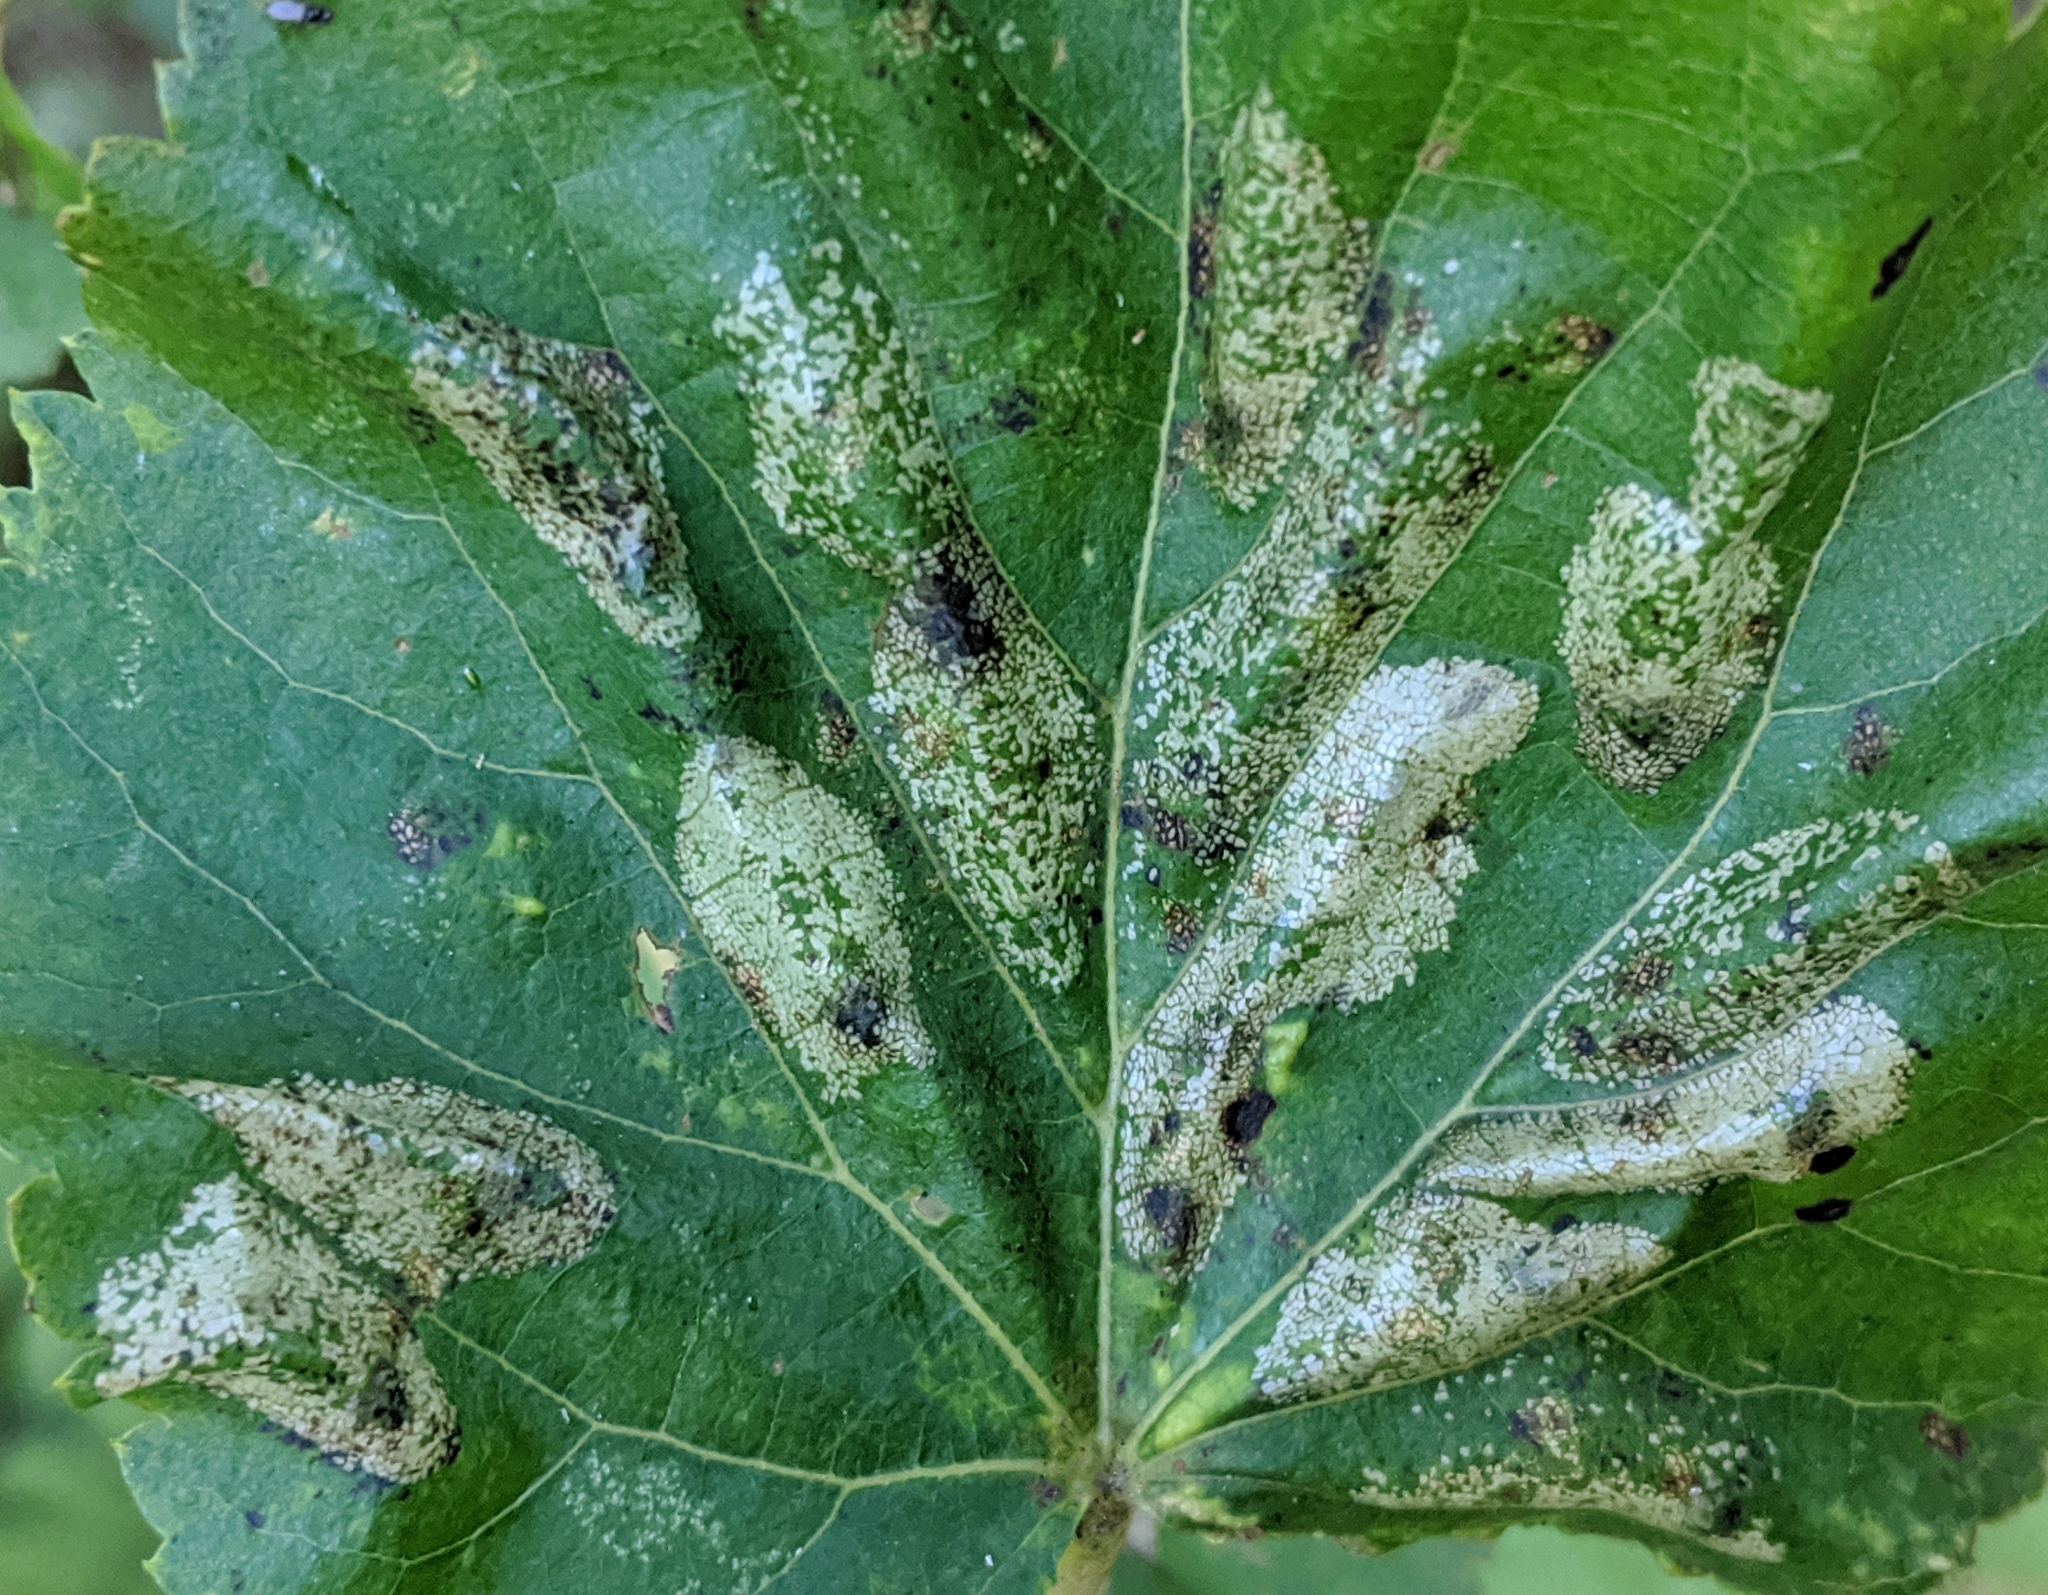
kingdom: Animalia
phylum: Arthropoda
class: Insecta
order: Lepidoptera
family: Gracillariidae
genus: Phyllonorycter
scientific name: Phyllonorycter issikii
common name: Linden midget
